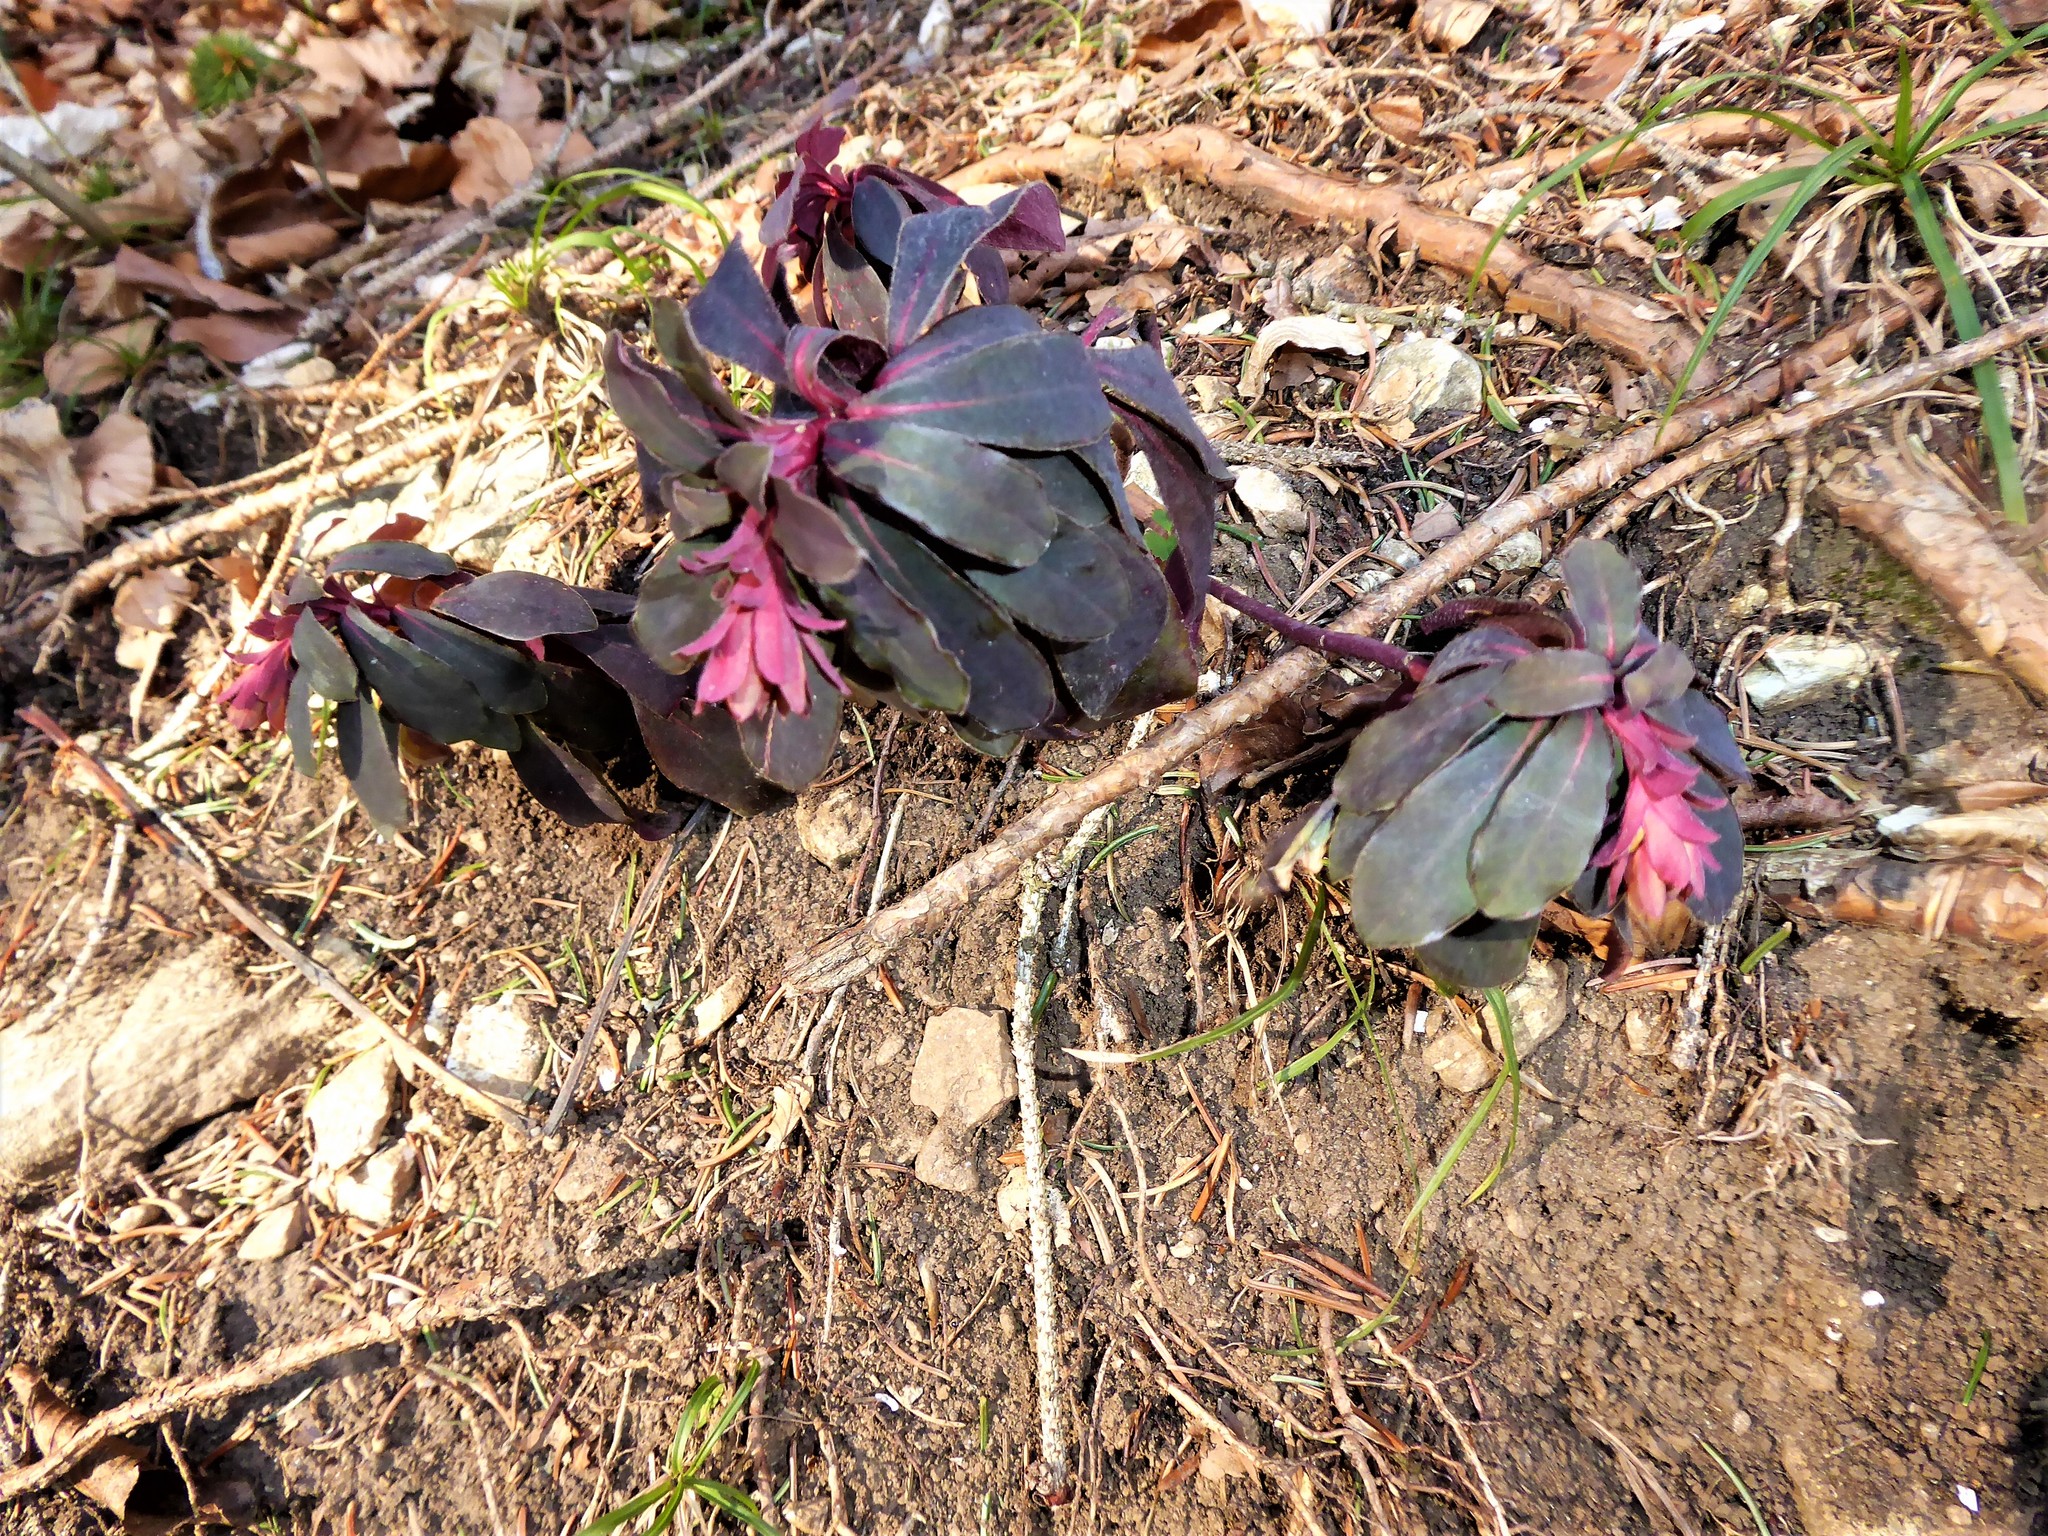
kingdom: Plantae
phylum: Tracheophyta
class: Magnoliopsida
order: Malpighiales
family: Euphorbiaceae
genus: Euphorbia
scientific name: Euphorbia amygdaloides
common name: Wood spurge
